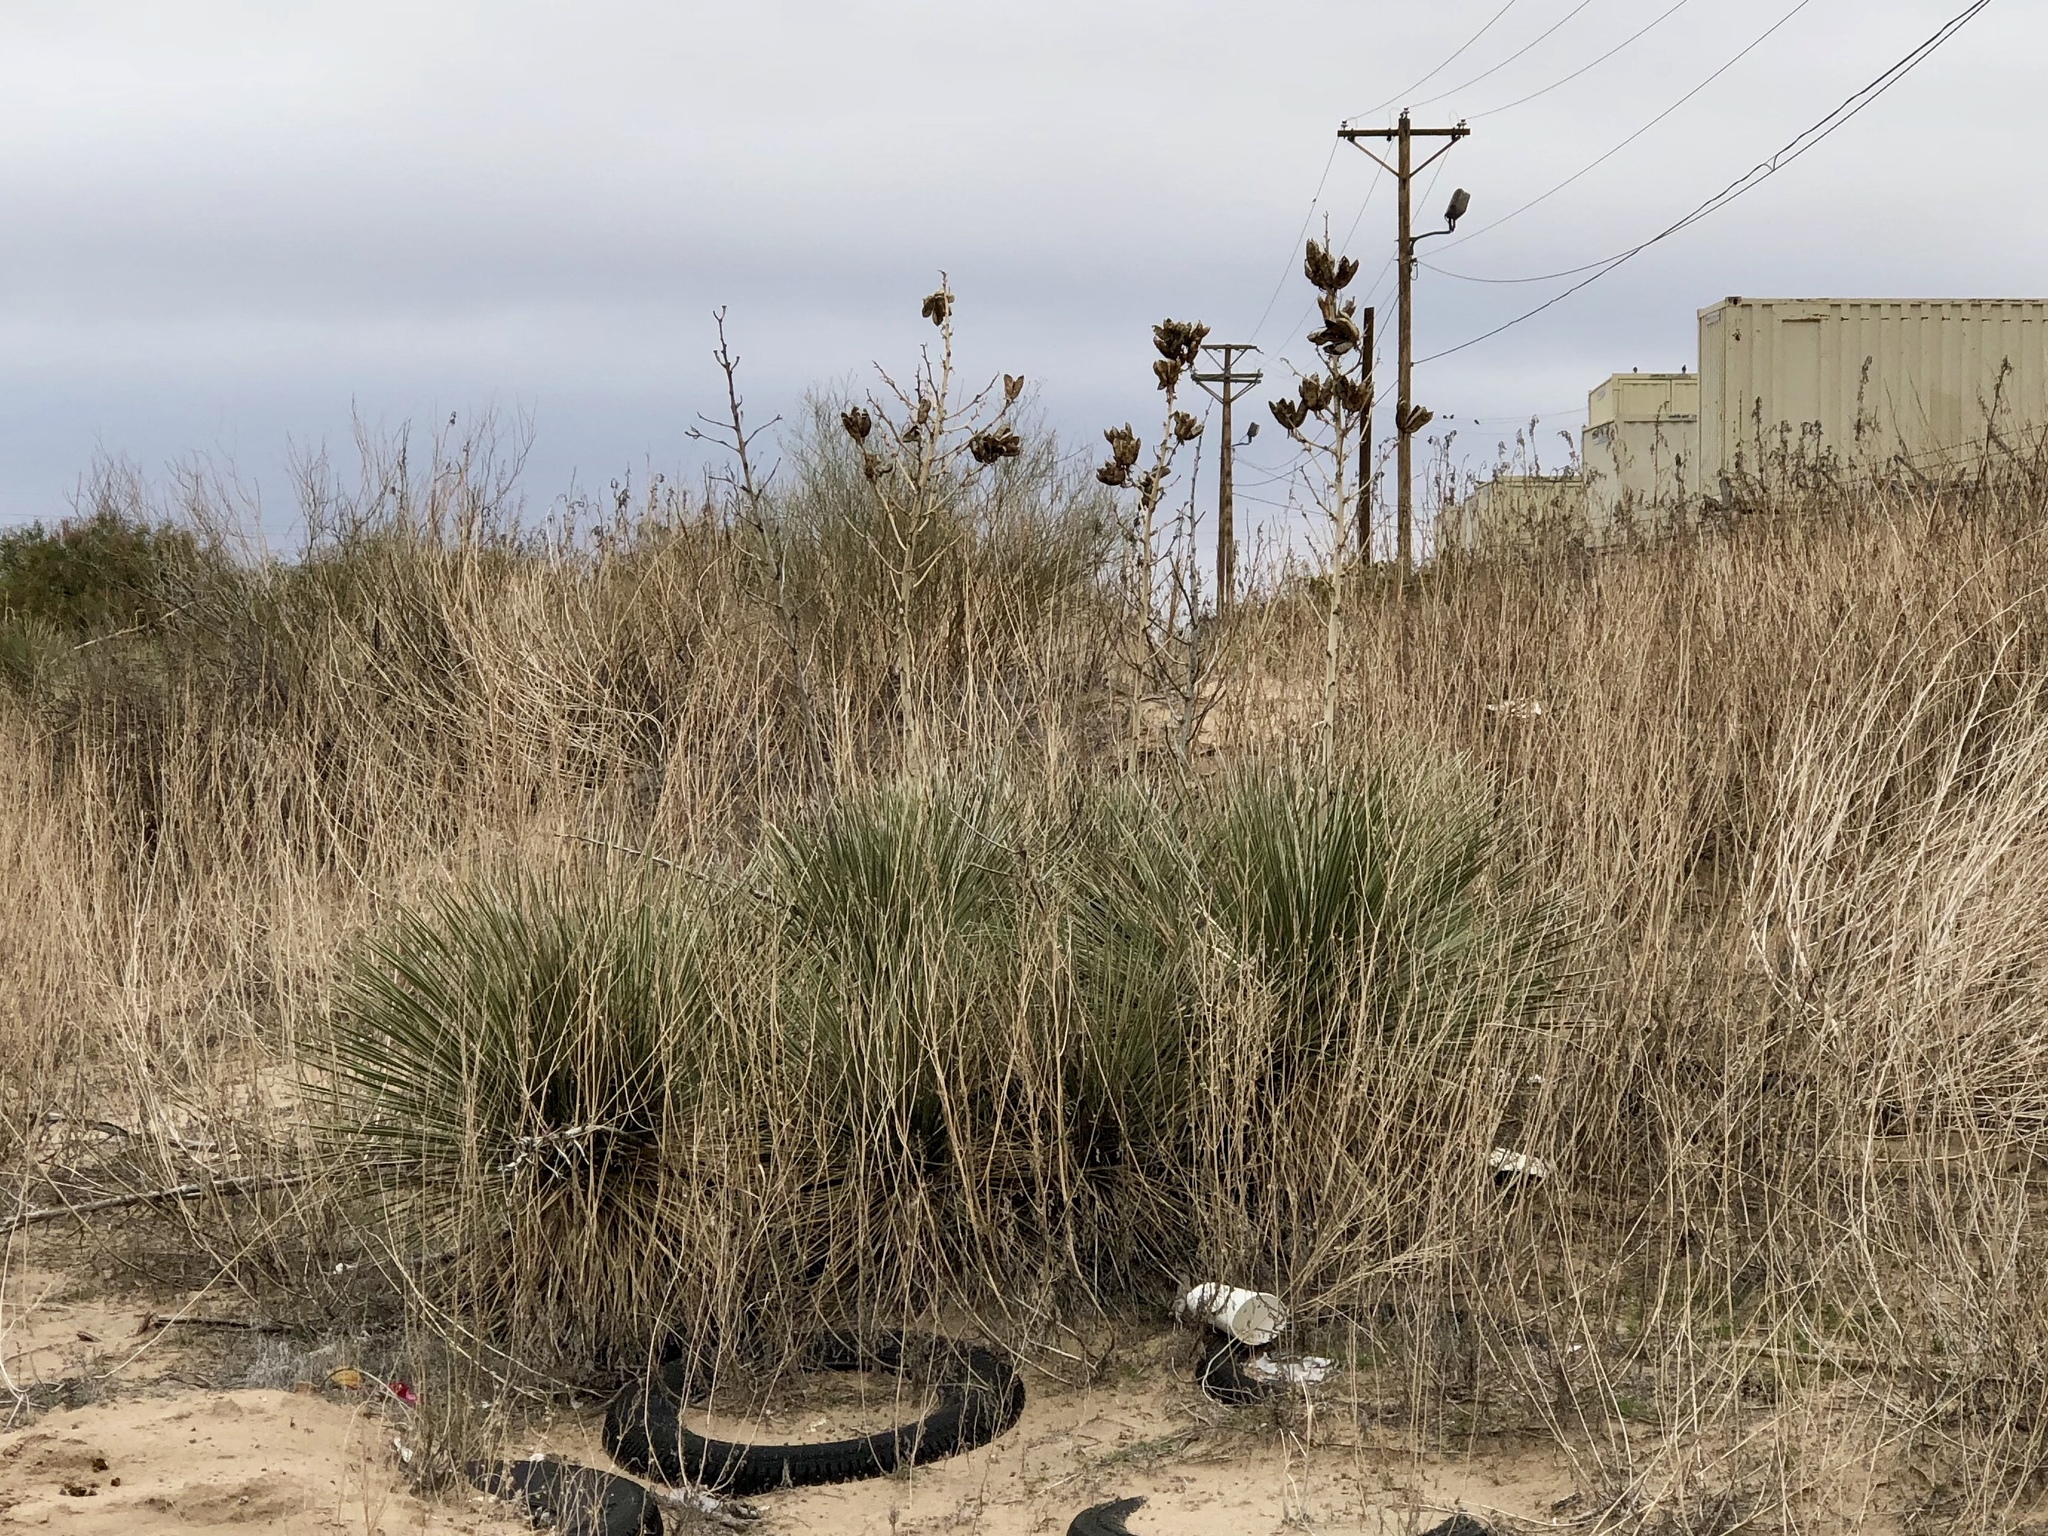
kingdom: Plantae
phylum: Tracheophyta
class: Liliopsida
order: Asparagales
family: Asparagaceae
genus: Yucca
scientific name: Yucca elata
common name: Palmella
